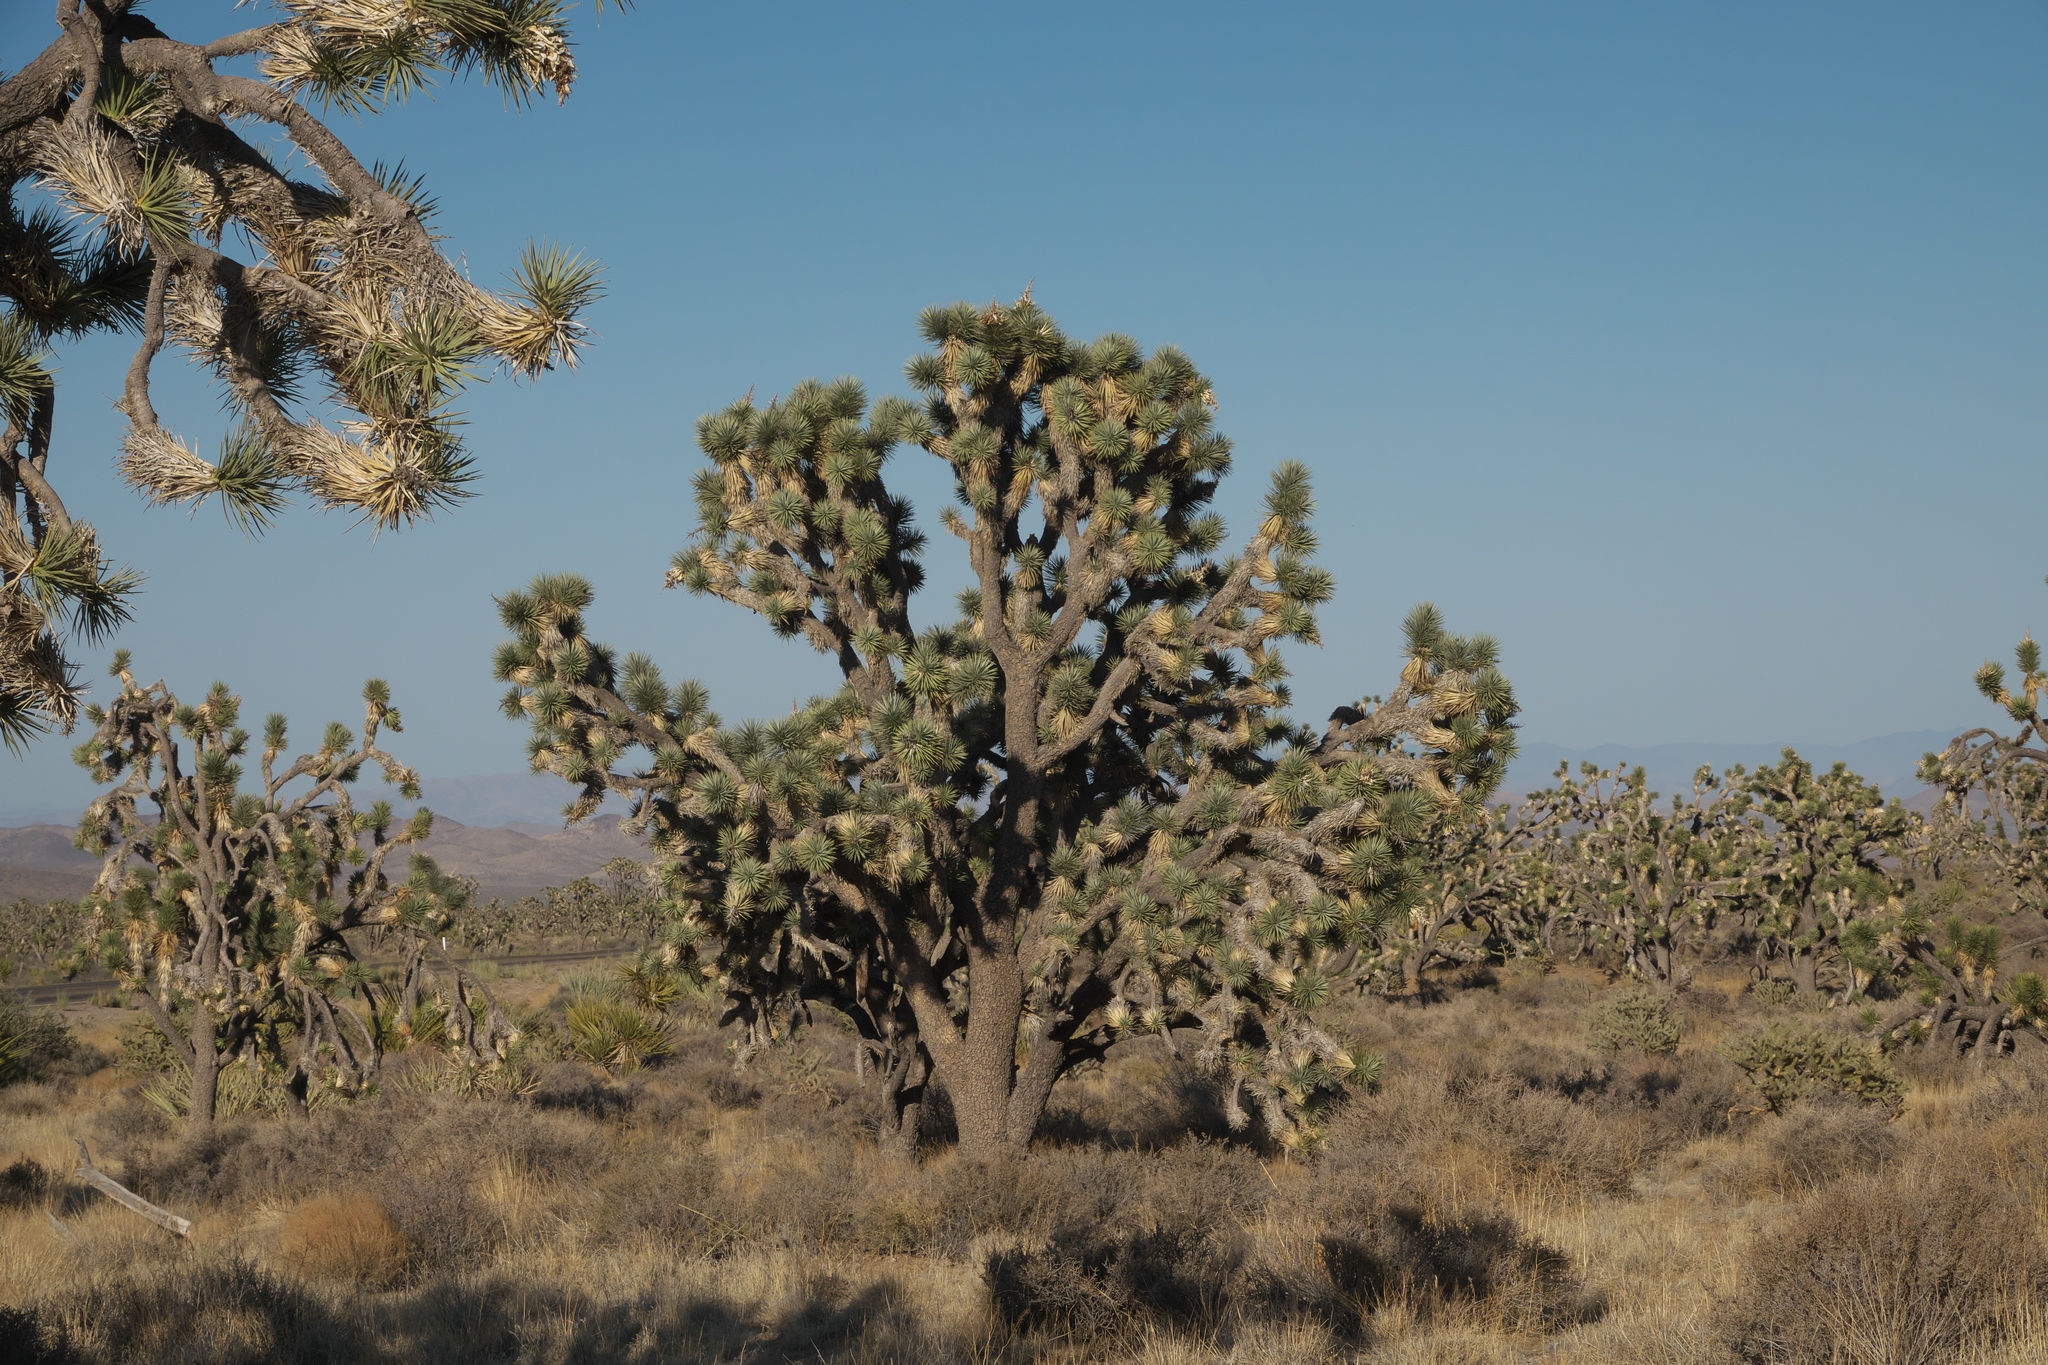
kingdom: Plantae
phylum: Tracheophyta
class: Liliopsida
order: Asparagales
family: Asparagaceae
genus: Yucca
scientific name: Yucca brevifolia
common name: Joshua tree
